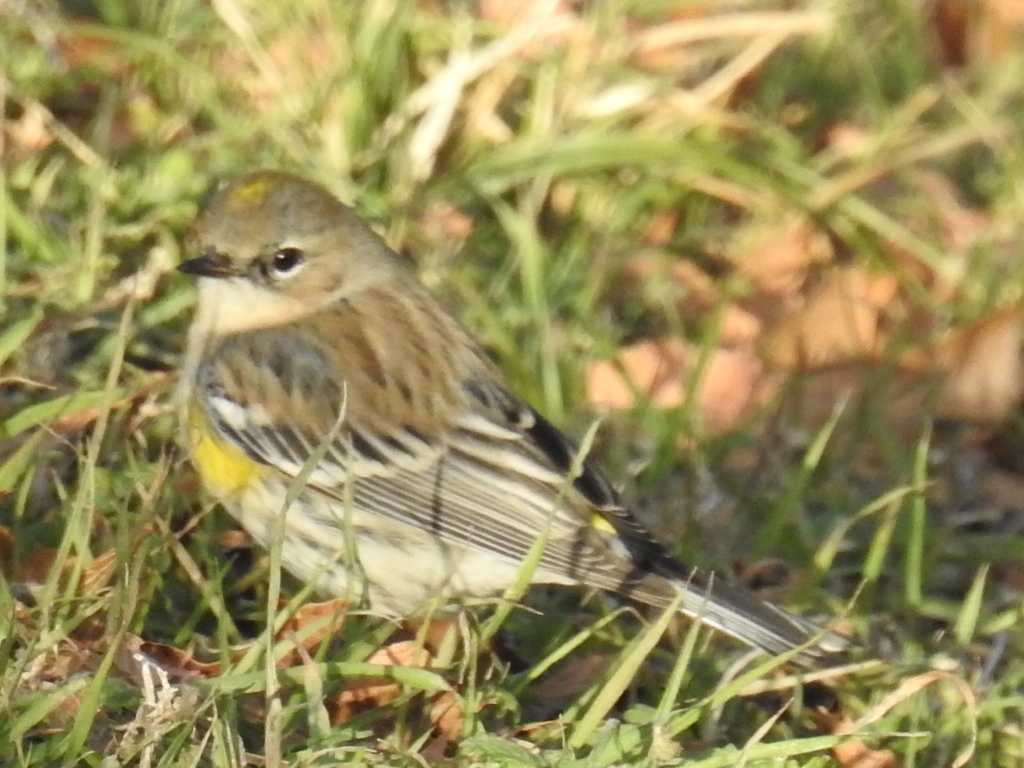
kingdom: Animalia
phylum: Chordata
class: Aves
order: Passeriformes
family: Parulidae
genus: Setophaga
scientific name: Setophaga coronata
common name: Myrtle warbler
